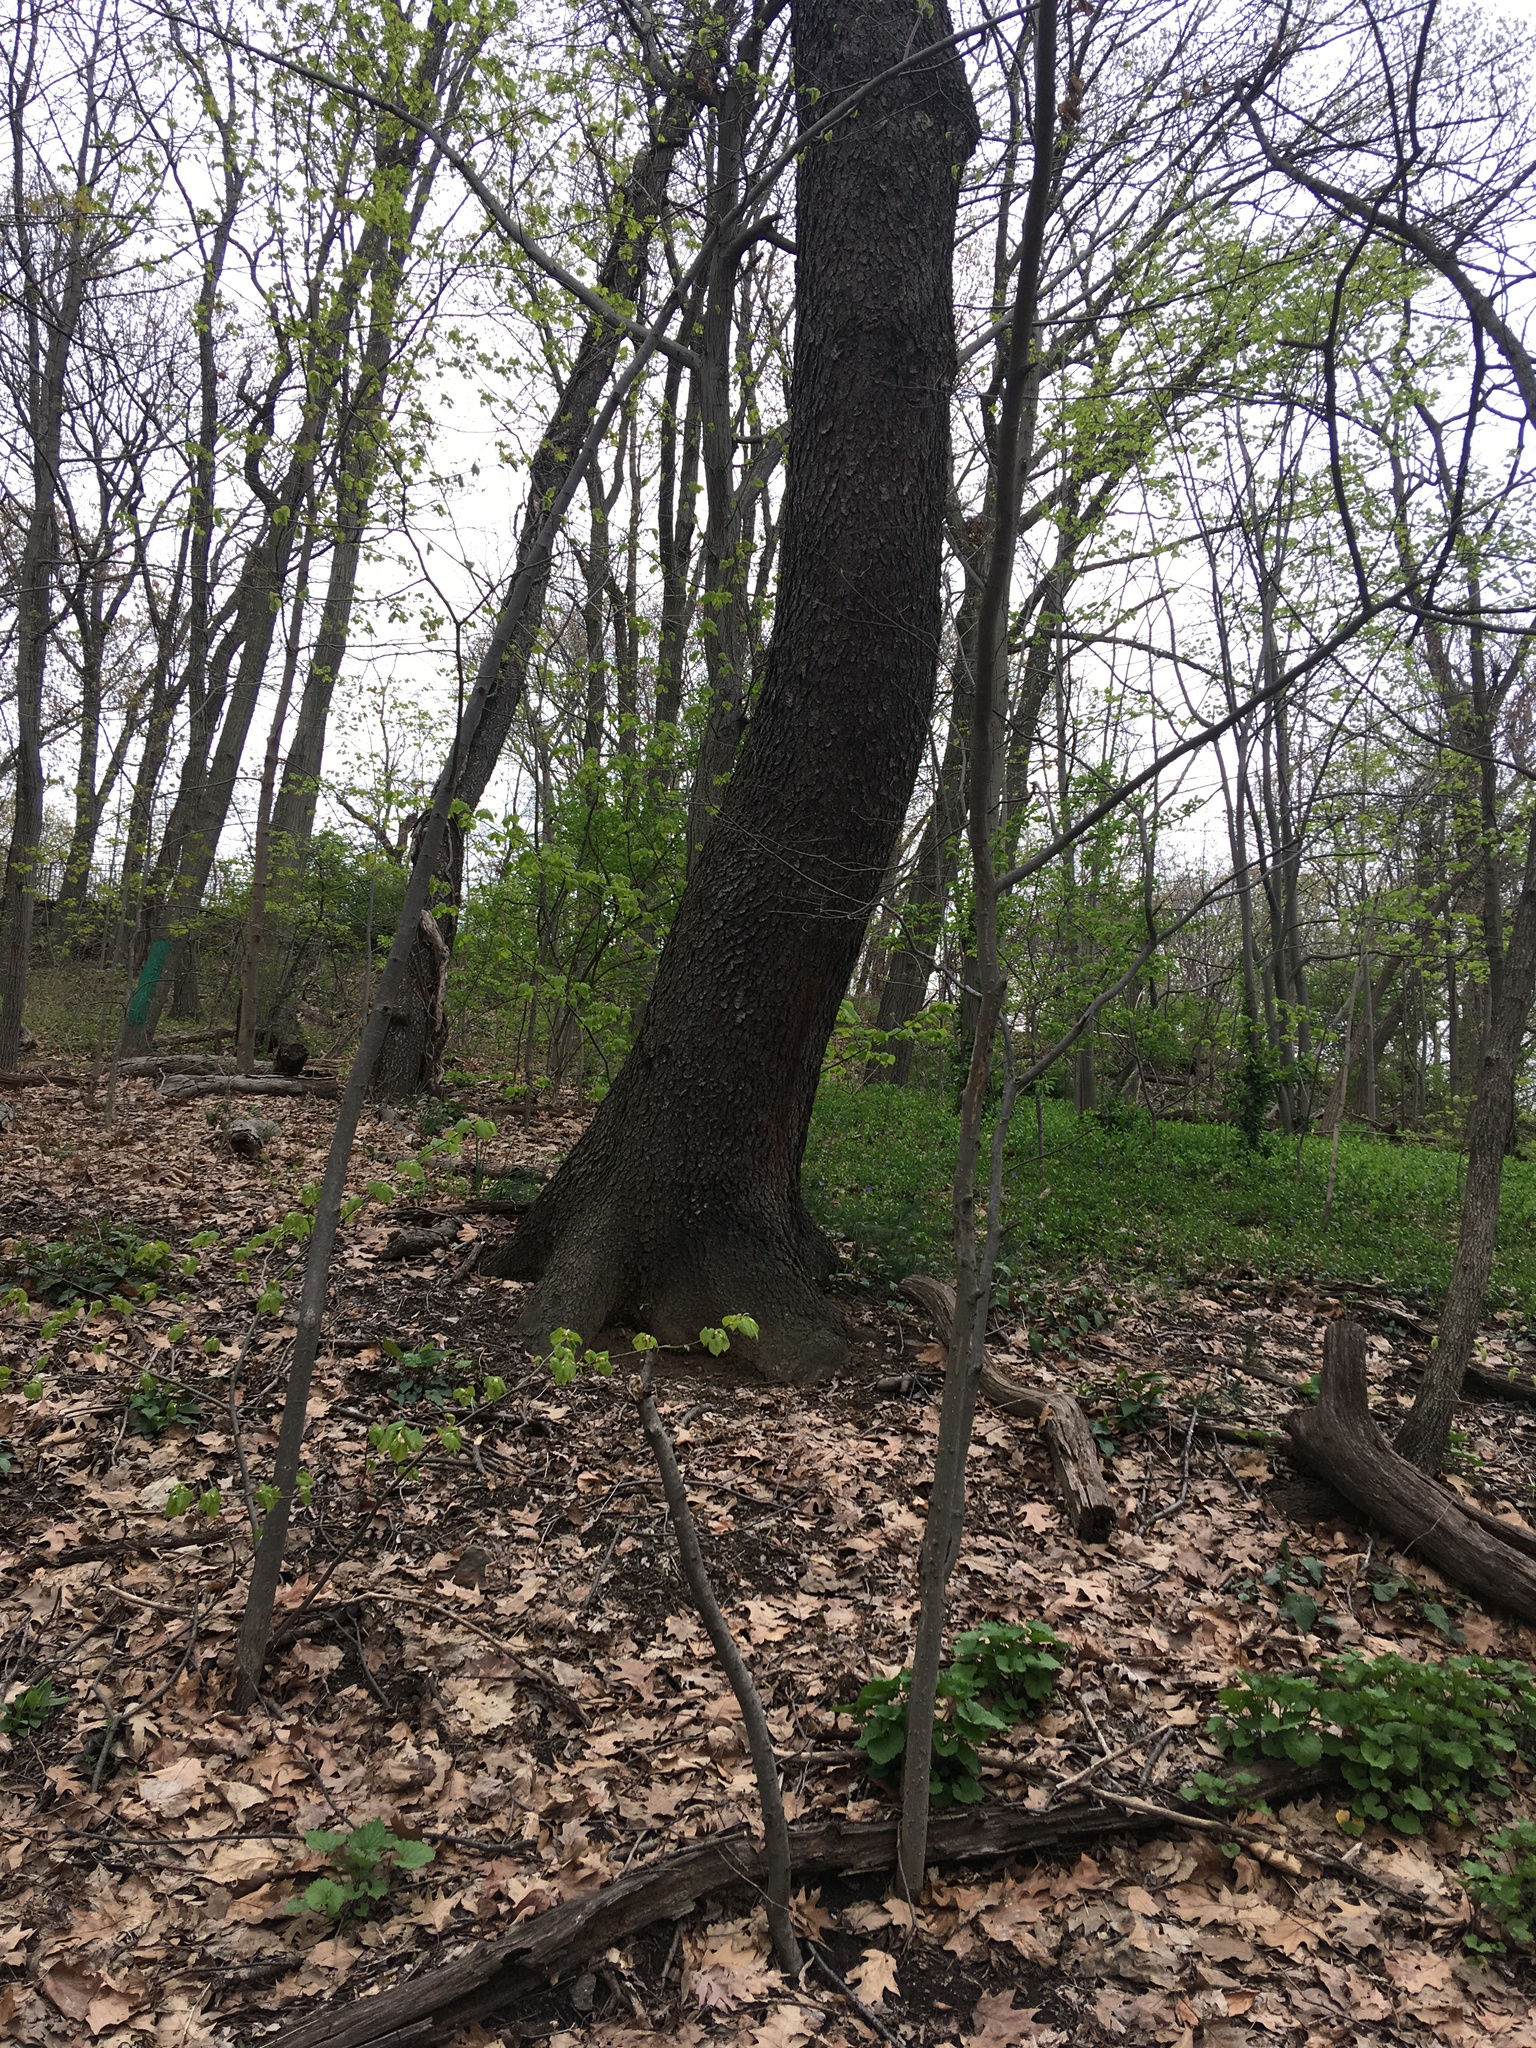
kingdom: Plantae
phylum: Tracheophyta
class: Magnoliopsida
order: Rosales
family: Rosaceae
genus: Prunus
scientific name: Prunus serotina
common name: Black cherry
